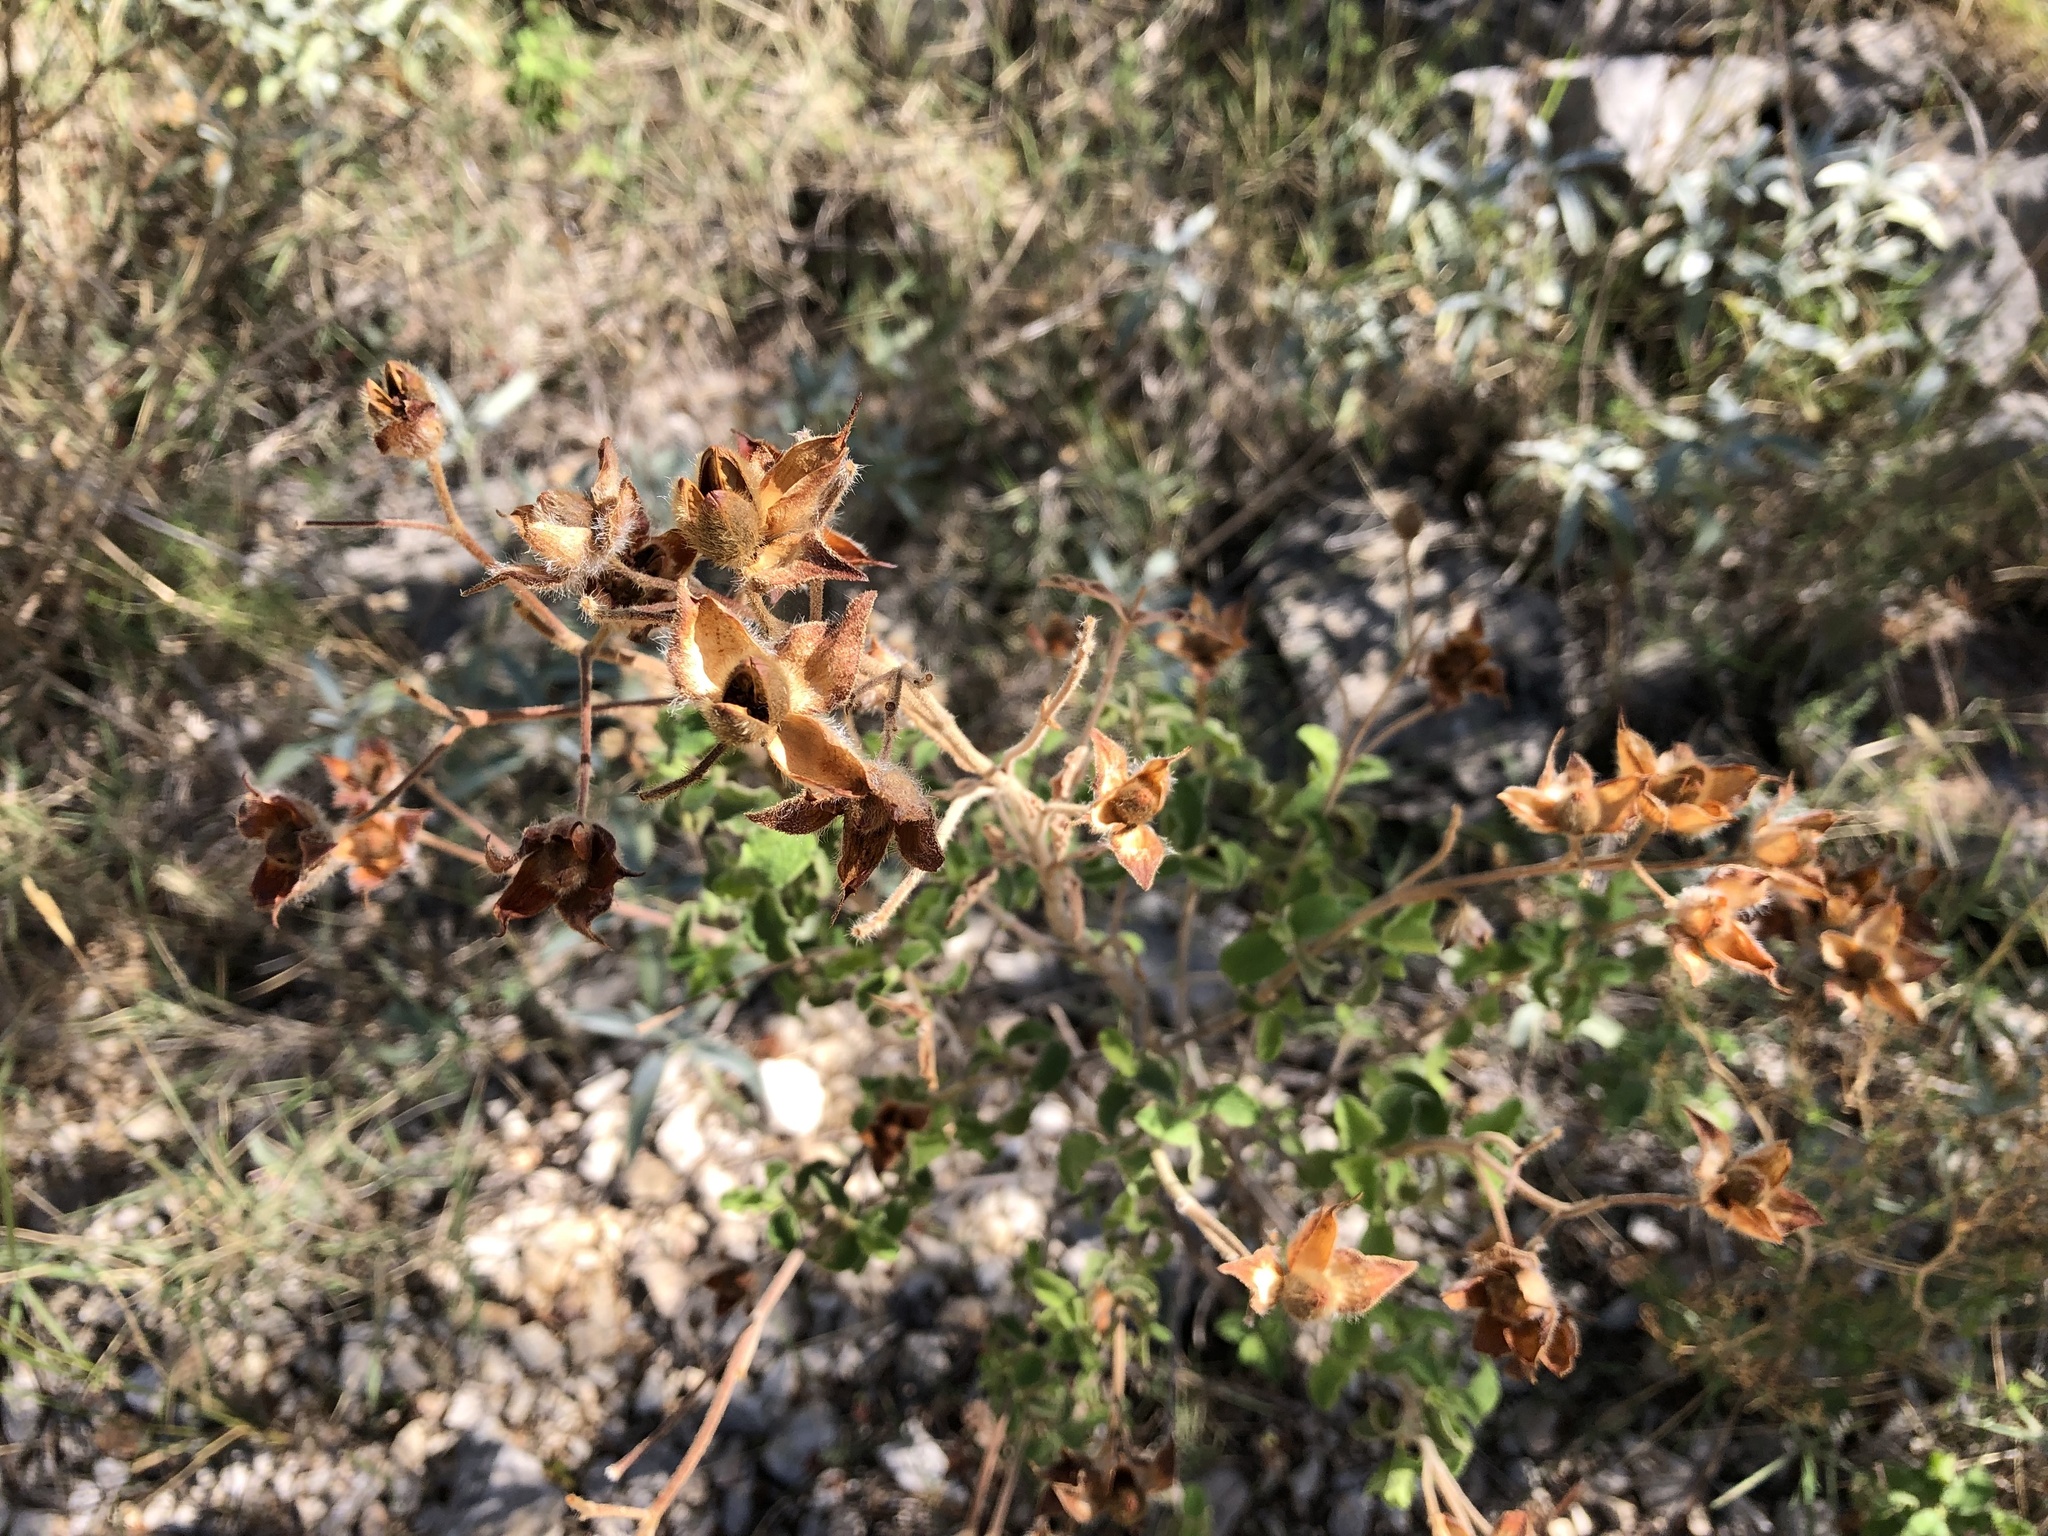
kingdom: Plantae
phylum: Tracheophyta
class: Magnoliopsida
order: Malvales
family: Cistaceae
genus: Cistus
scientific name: Cistus creticus
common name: Cretan rockrose
